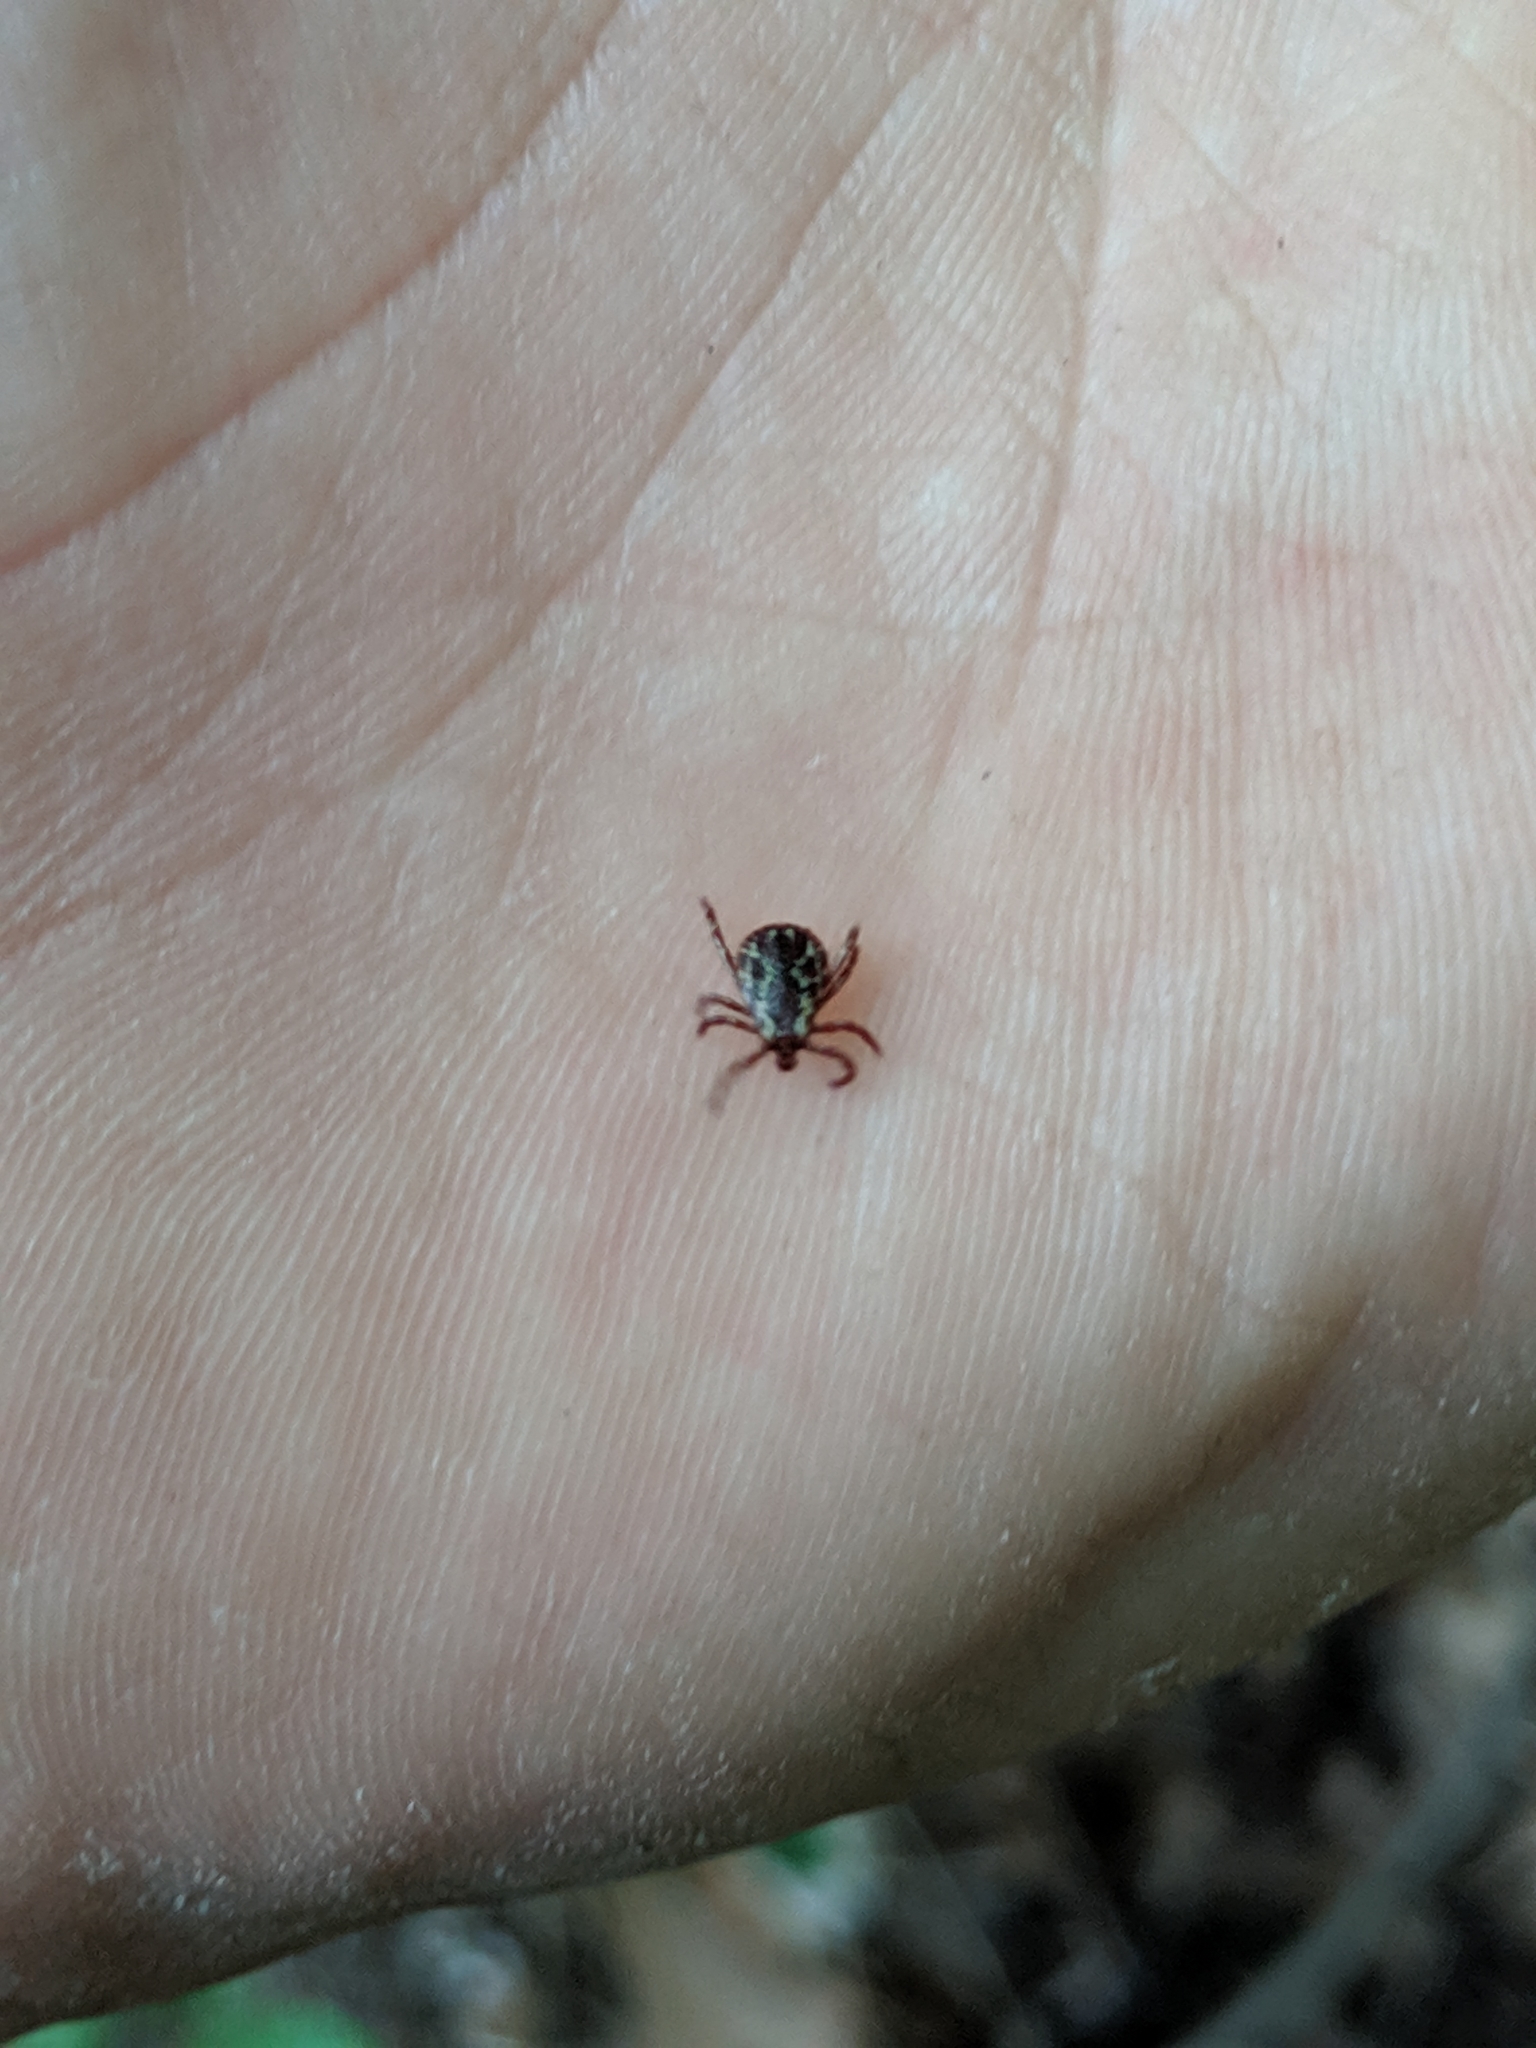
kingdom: Animalia
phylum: Arthropoda
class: Arachnida
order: Ixodida
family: Ixodidae
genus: Dermacentor
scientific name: Dermacentor variabilis
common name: American dog tick
